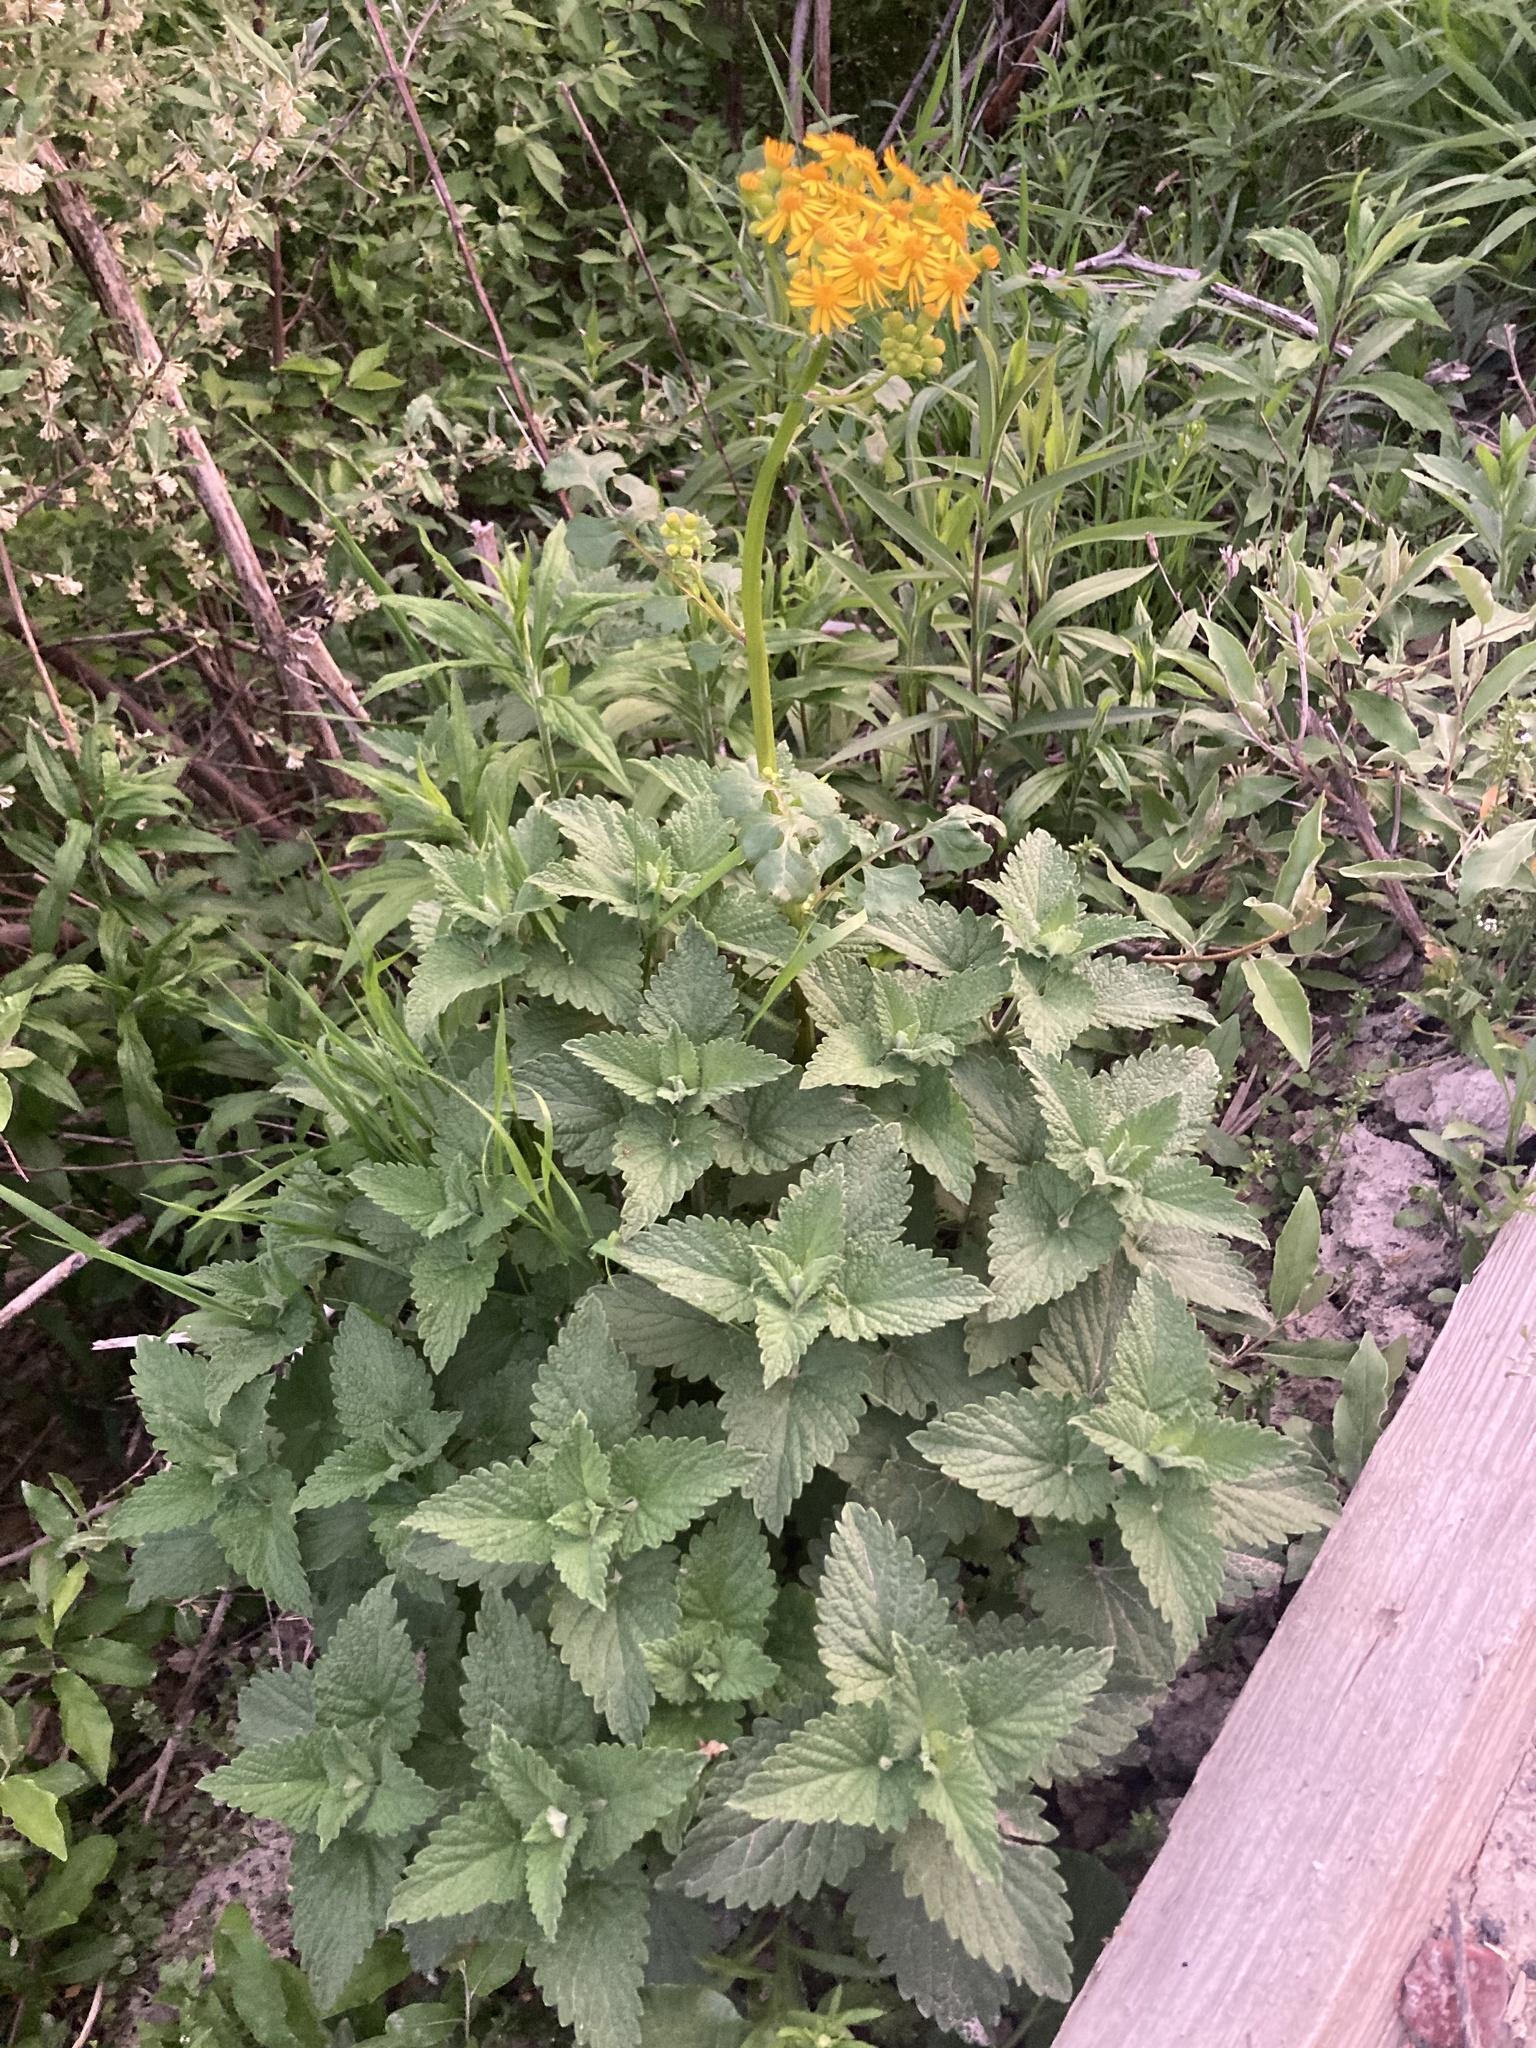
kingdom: Plantae
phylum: Tracheophyta
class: Magnoliopsida
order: Lamiales
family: Lamiaceae
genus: Nepeta
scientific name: Nepeta cataria
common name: Catnip
